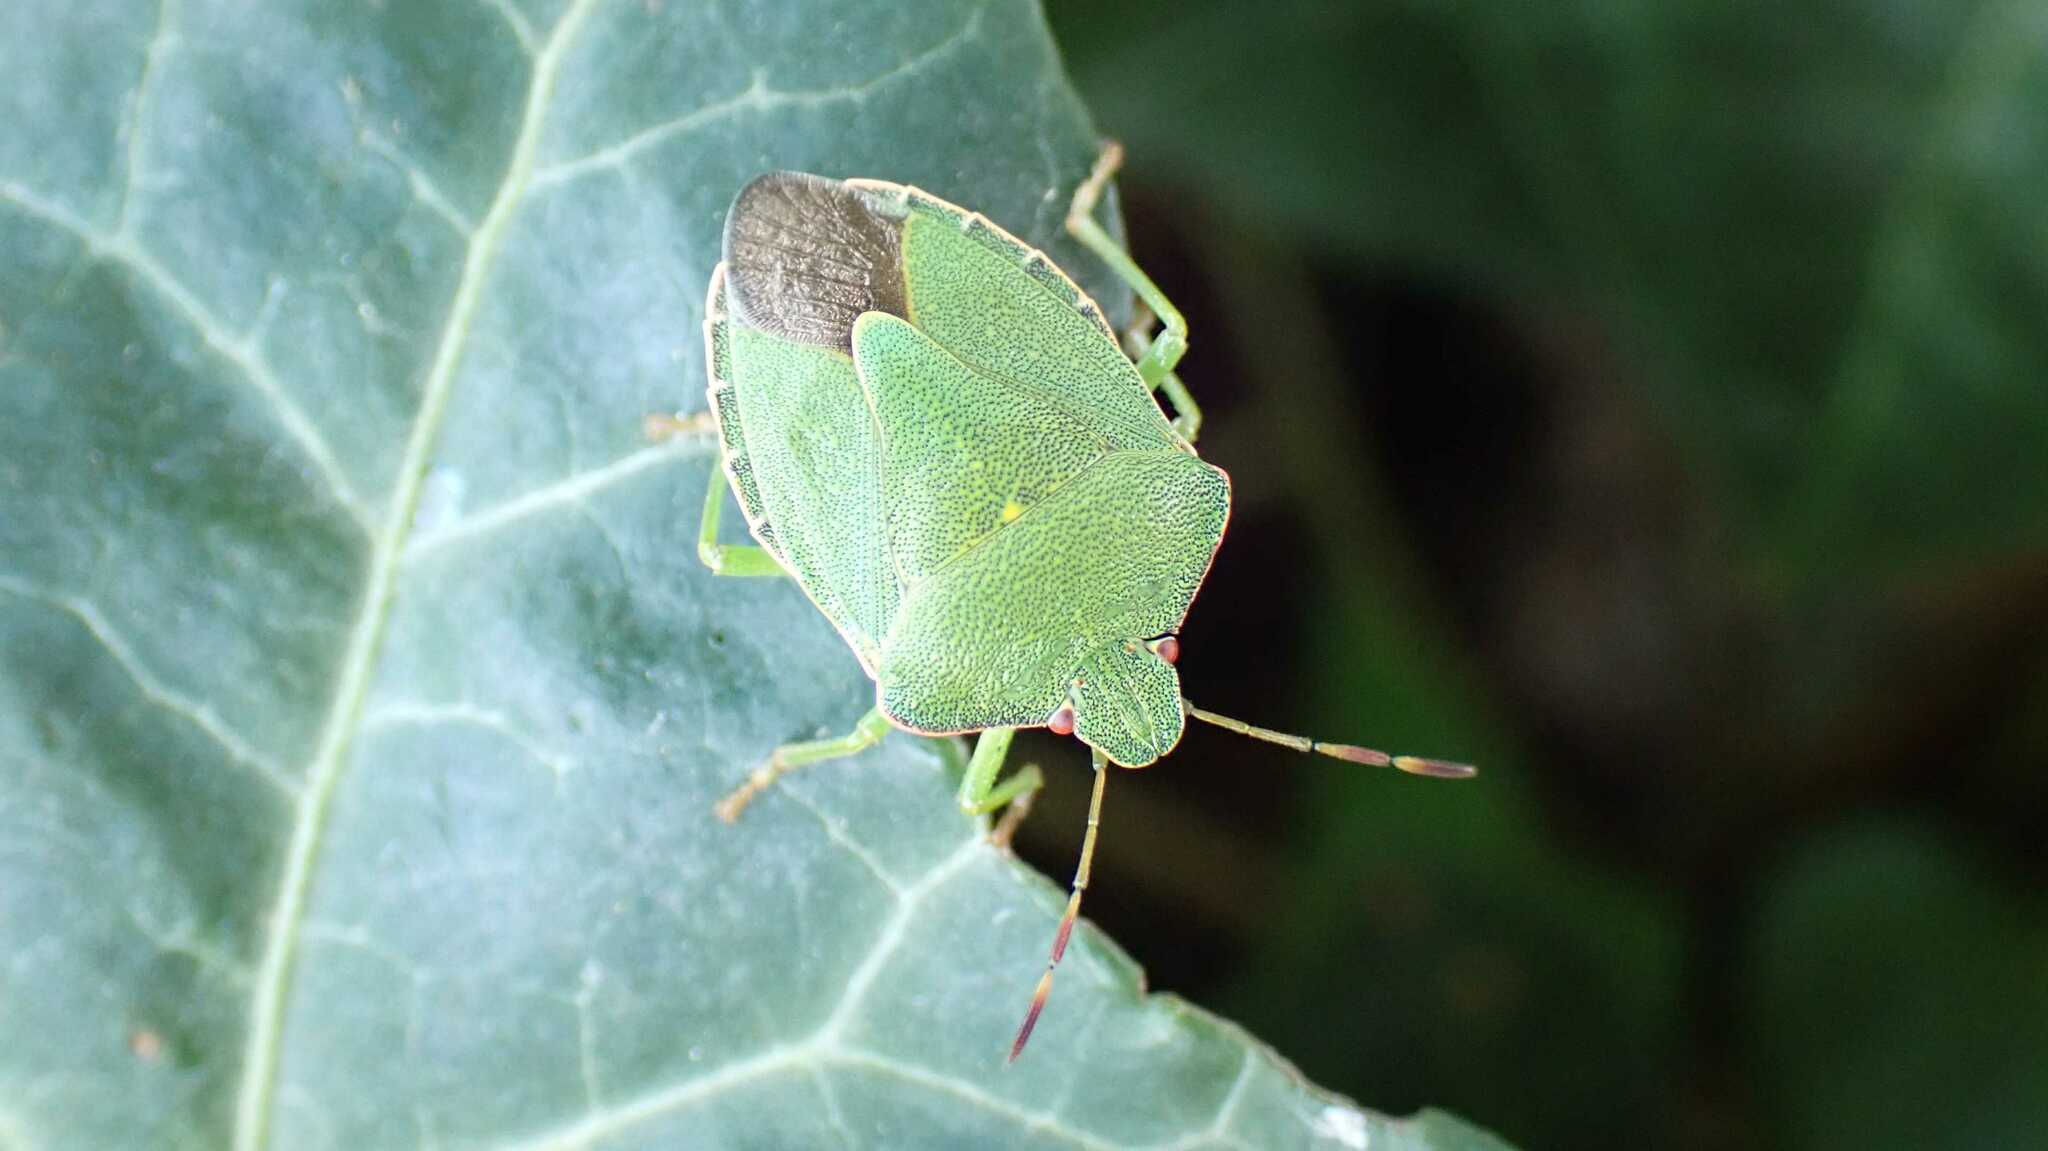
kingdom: Animalia
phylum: Arthropoda
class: Insecta
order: Hemiptera
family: Pentatomidae
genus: Palomena
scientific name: Palomena prasina
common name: Green shieldbug
